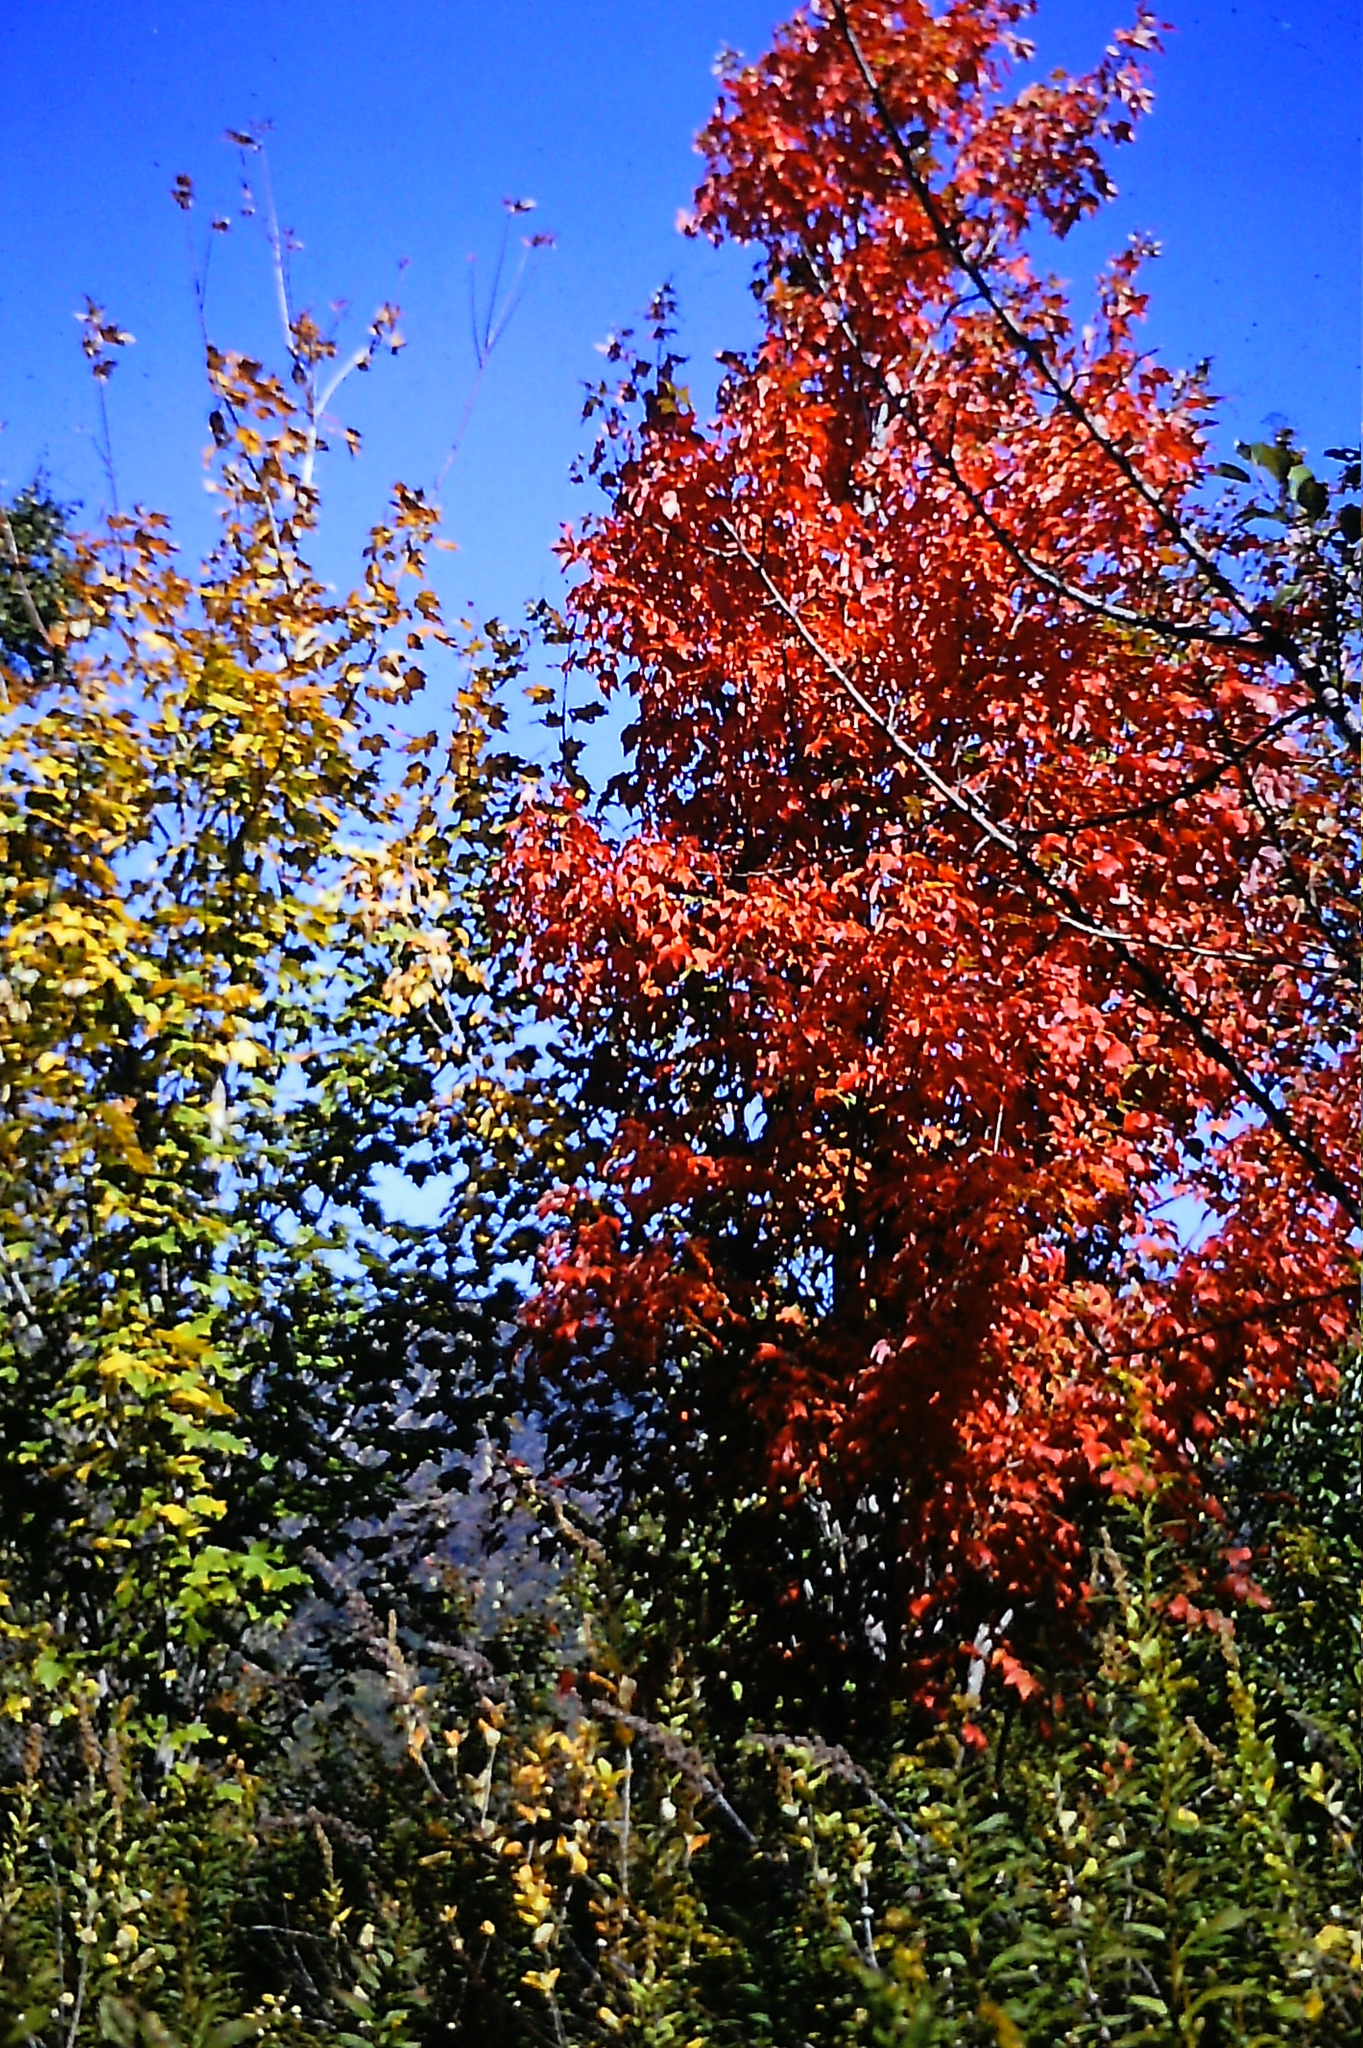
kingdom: Plantae
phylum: Tracheophyta
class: Magnoliopsida
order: Sapindales
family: Sapindaceae
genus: Acer
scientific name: Acer rubrum
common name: Red maple
